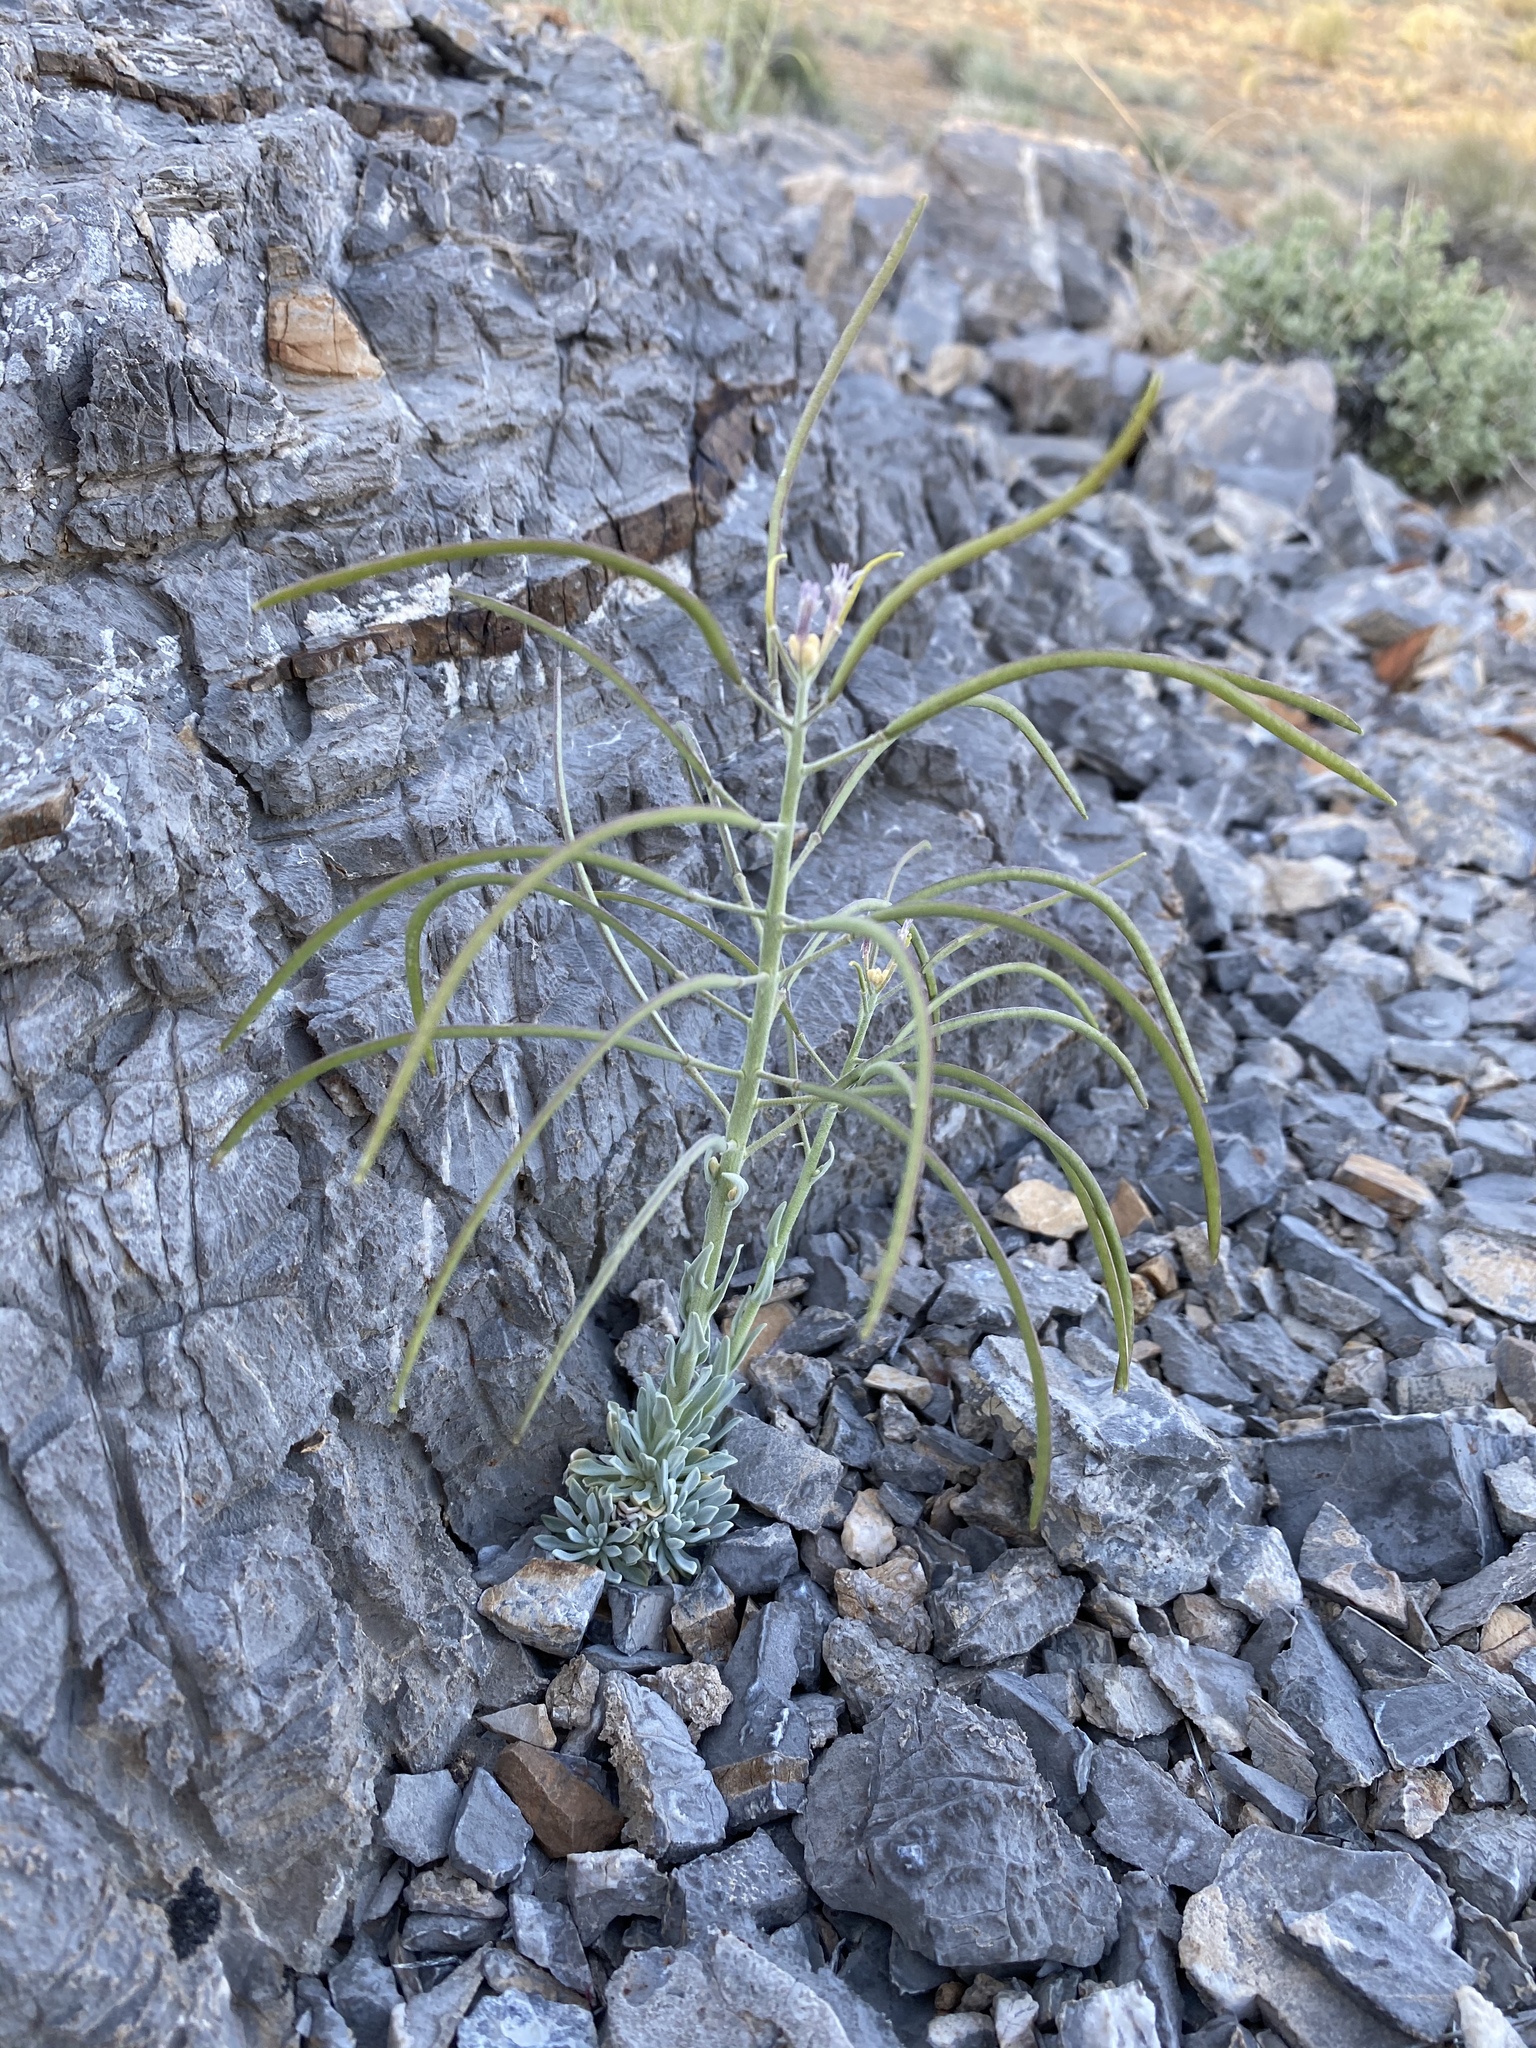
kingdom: Plantae
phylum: Tracheophyta
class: Magnoliopsida
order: Brassicales
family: Brassicaceae
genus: Boechera
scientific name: Boechera shockleyi
